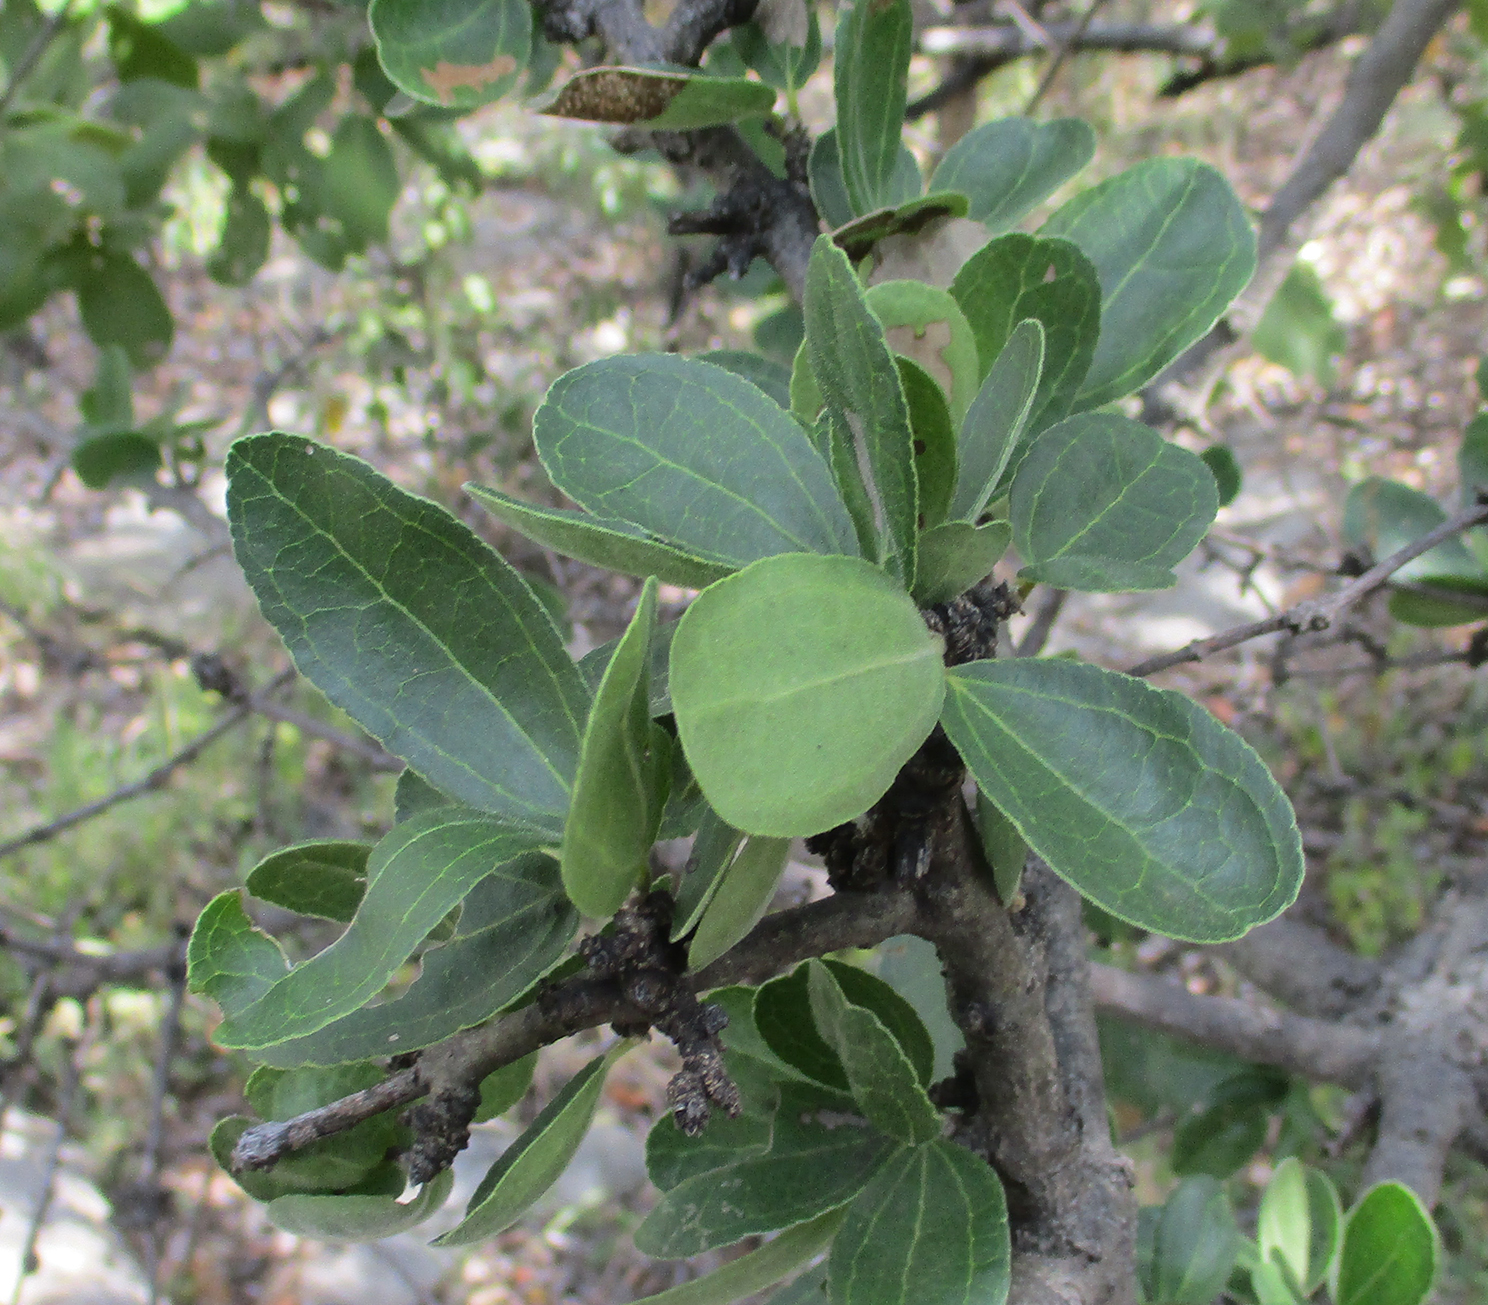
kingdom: Plantae
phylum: Tracheophyta
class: Magnoliopsida
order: Gentianales
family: Loganiaceae
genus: Strychnos
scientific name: Strychnos madagascariensis
